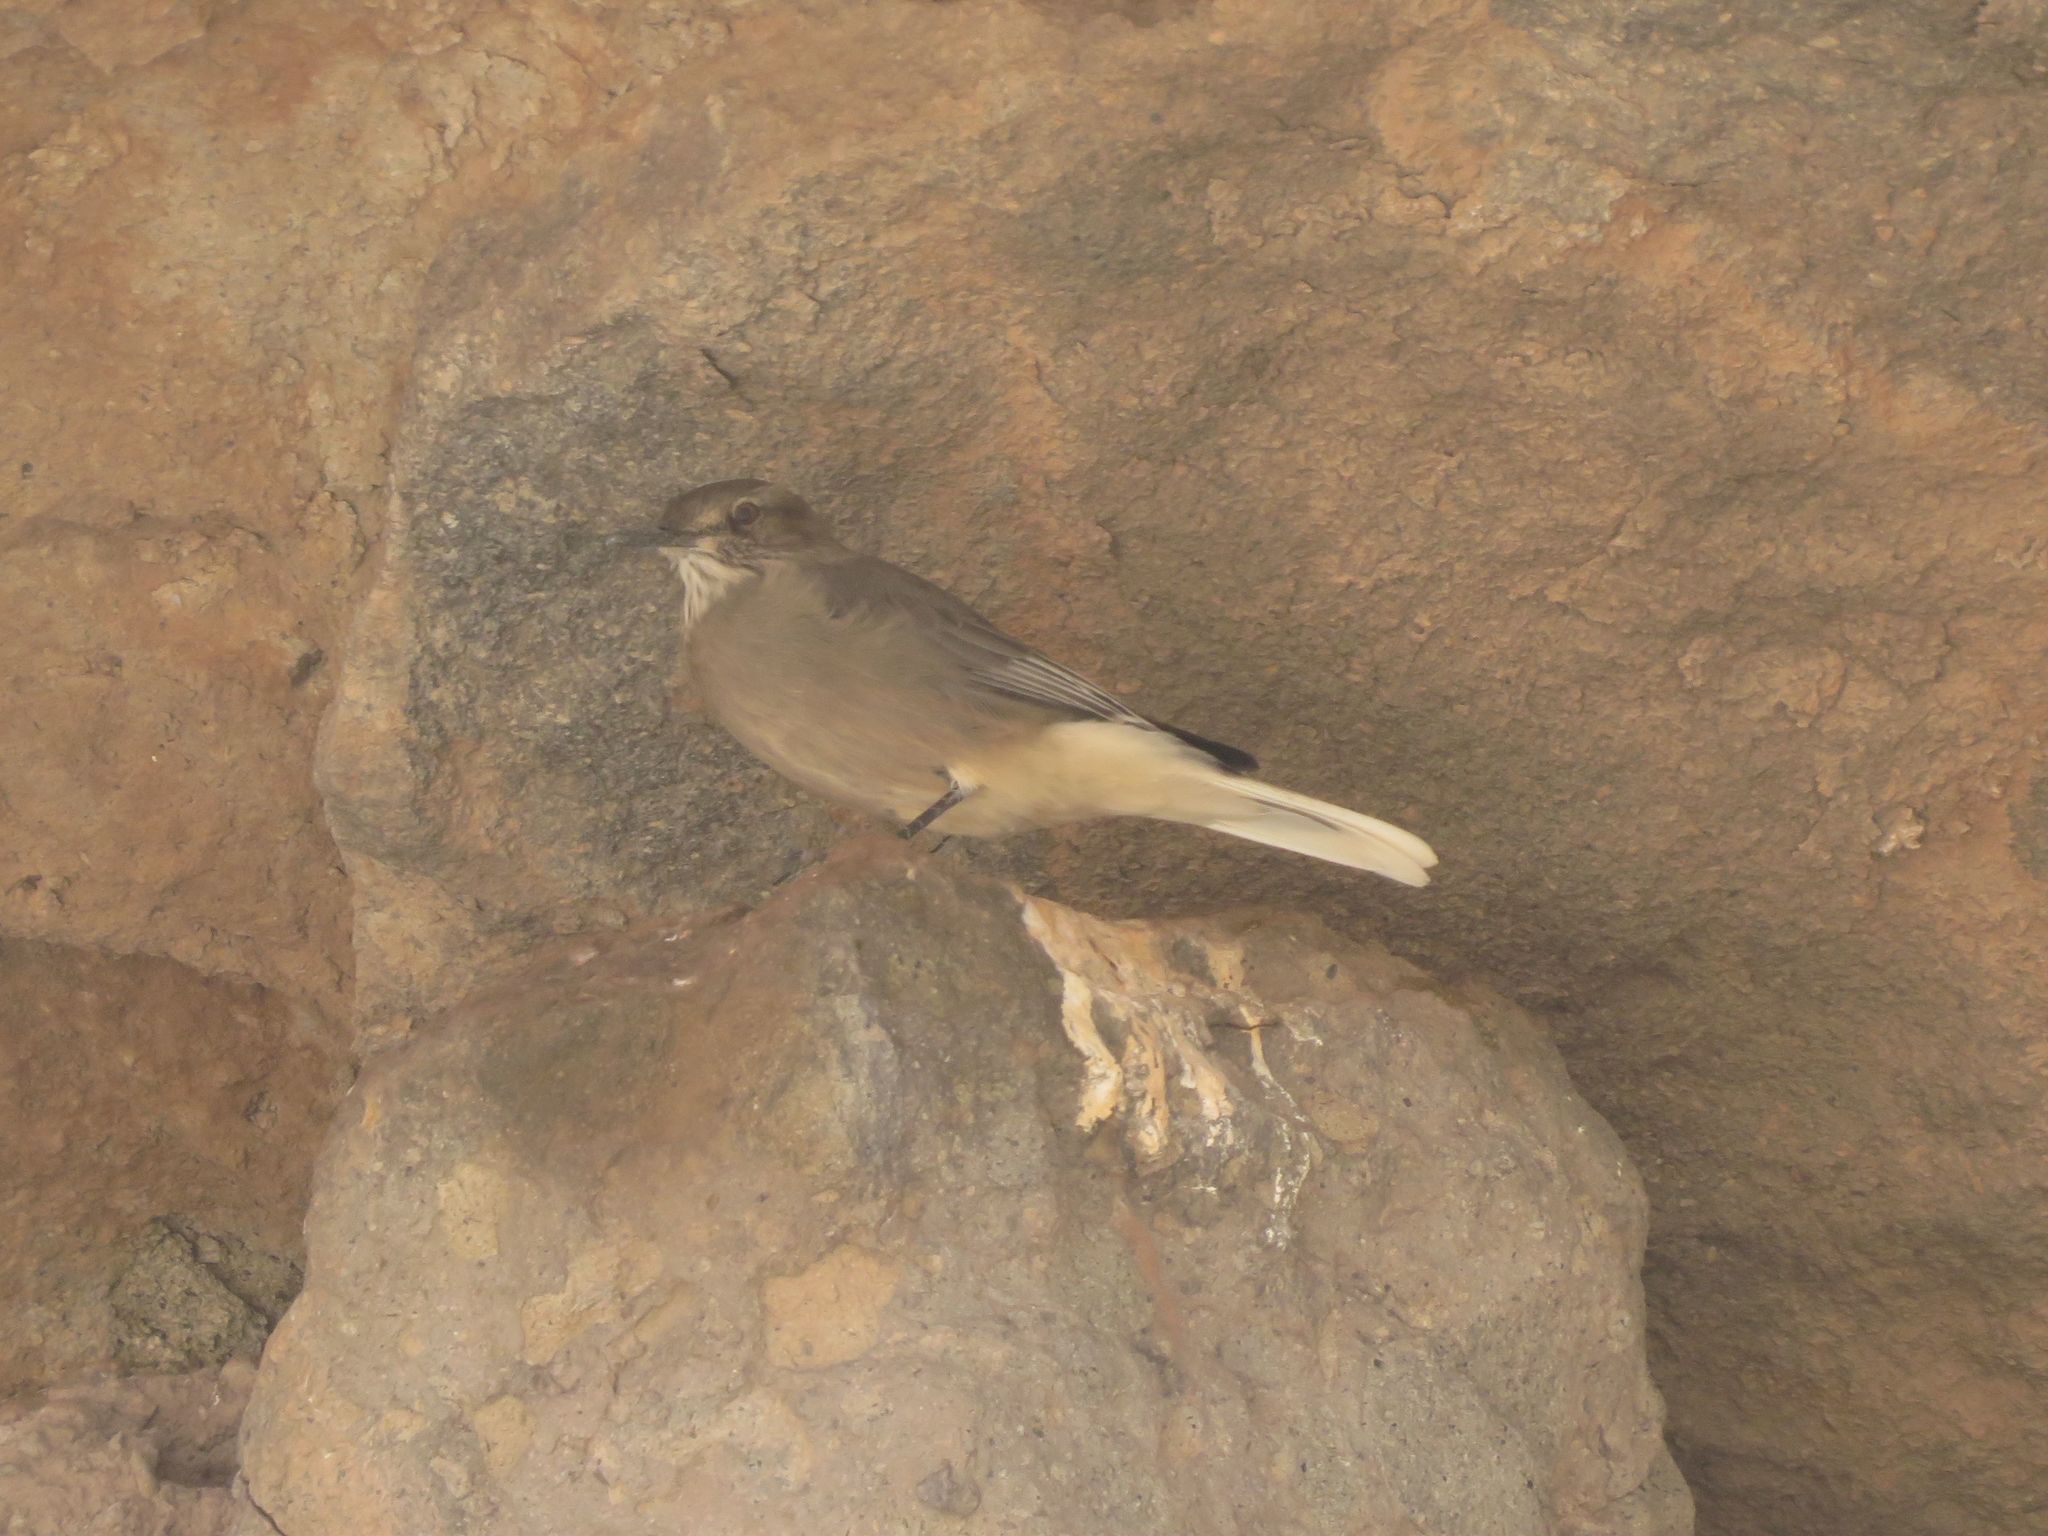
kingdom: Animalia
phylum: Chordata
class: Aves
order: Passeriformes
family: Tyrannidae
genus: Agriornis
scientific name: Agriornis montanus
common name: Black-billed shrike-tyrant
